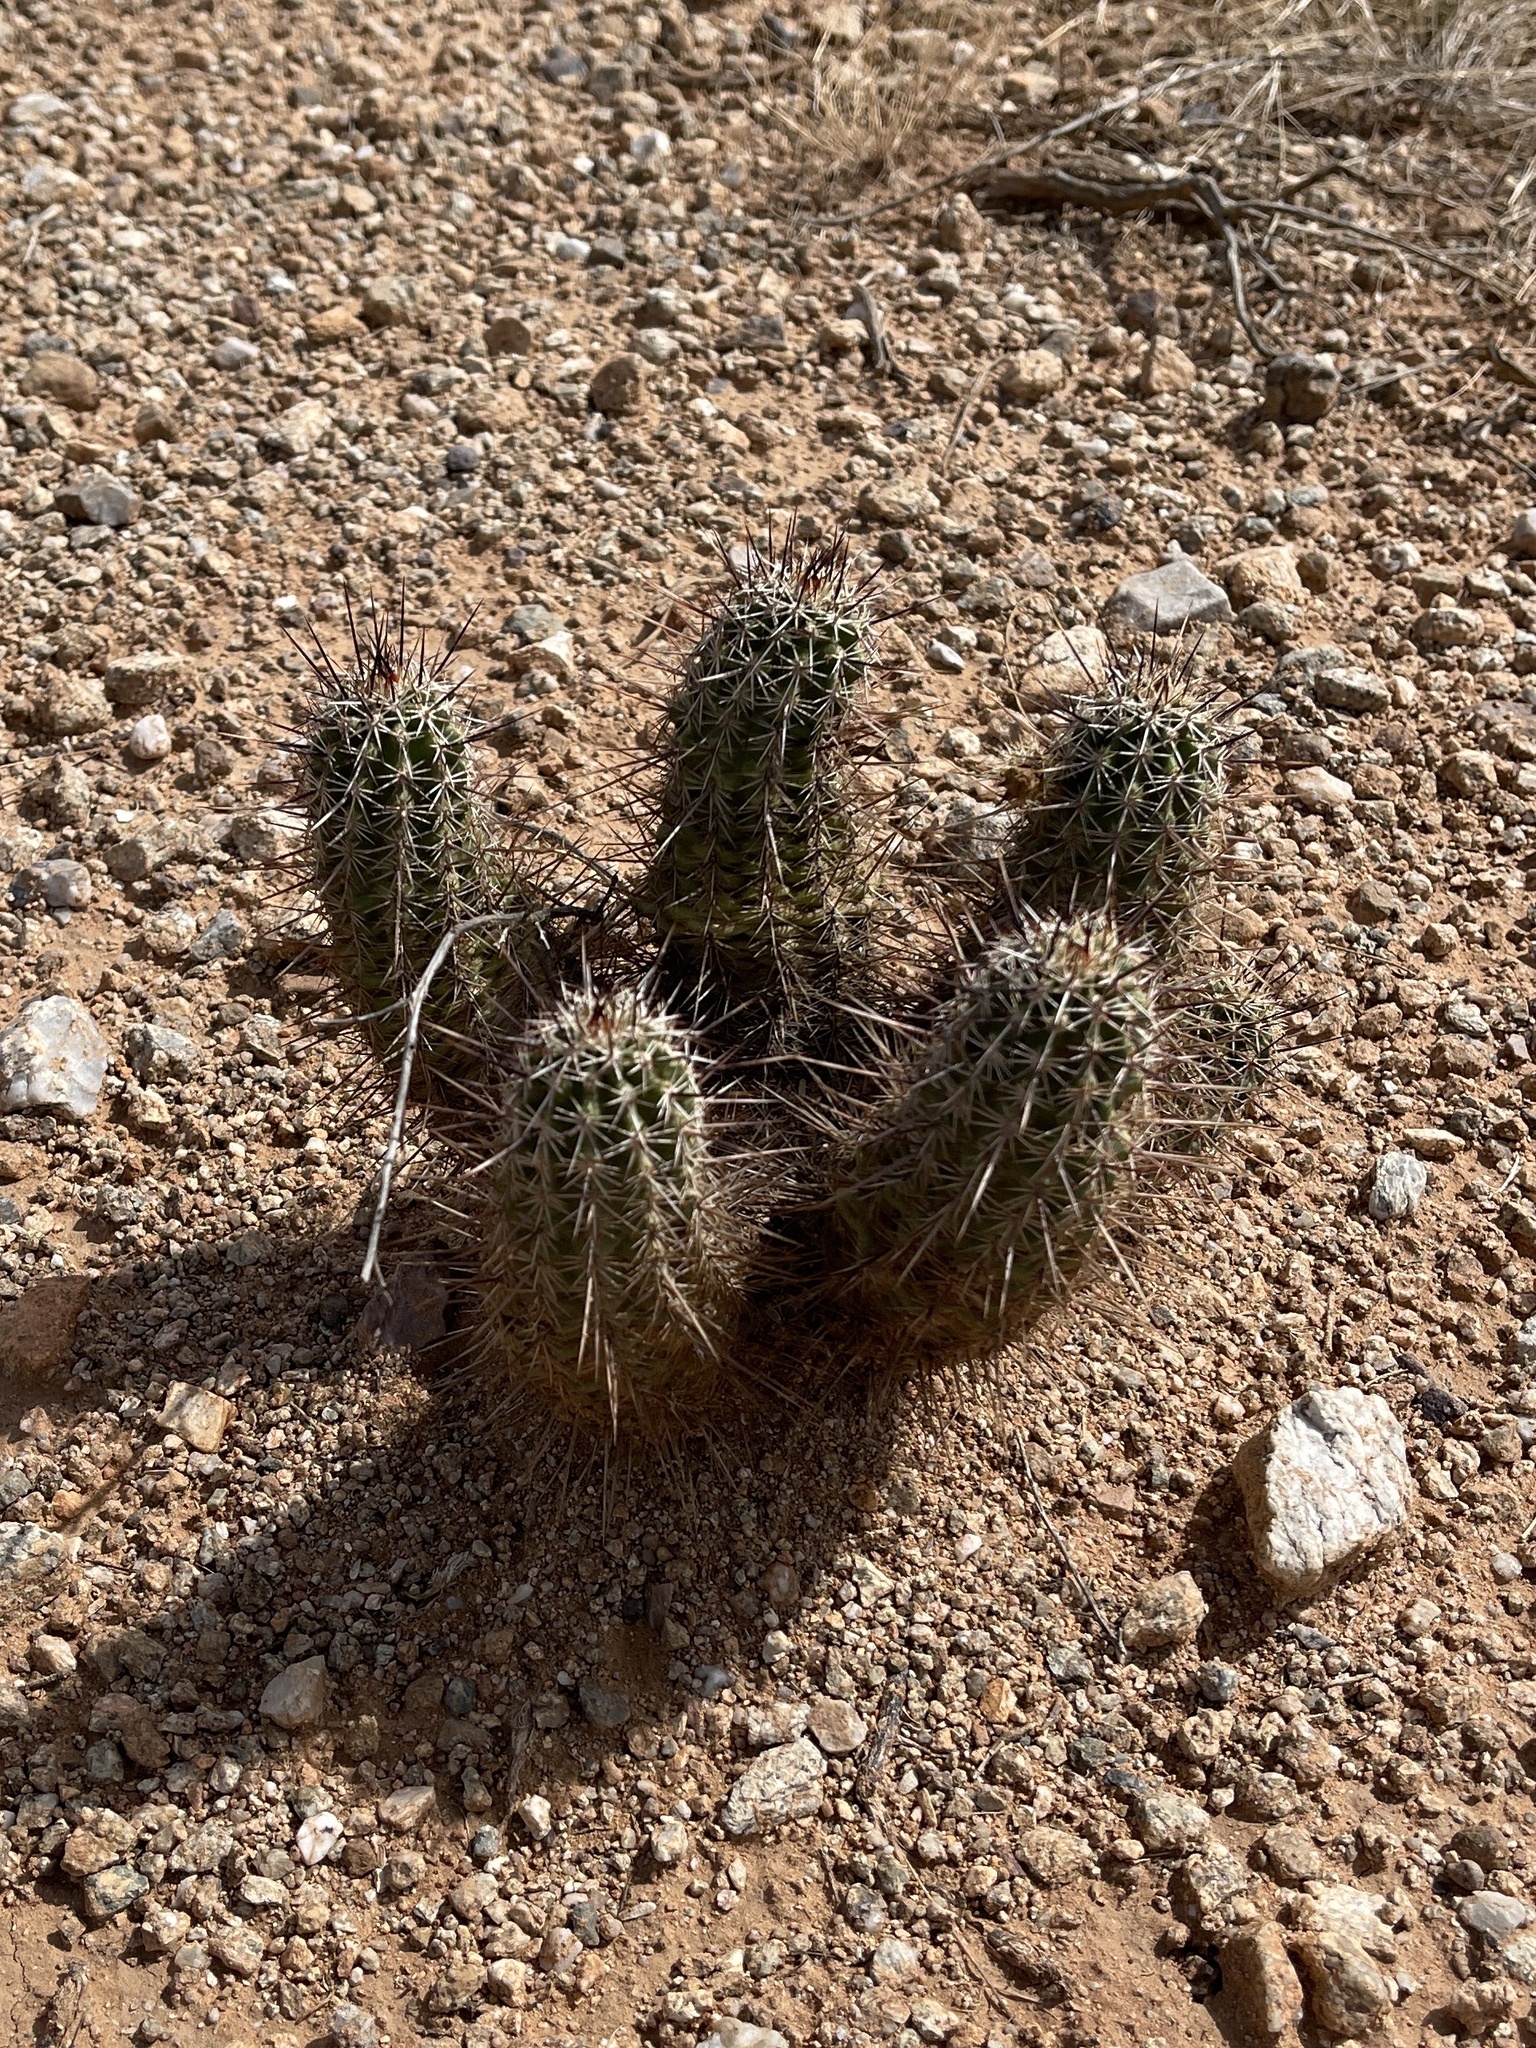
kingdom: Plantae
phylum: Tracheophyta
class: Magnoliopsida
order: Caryophyllales
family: Cactaceae
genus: Echinocereus
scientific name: Echinocereus fasciculatus
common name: Bundle hedgehog
